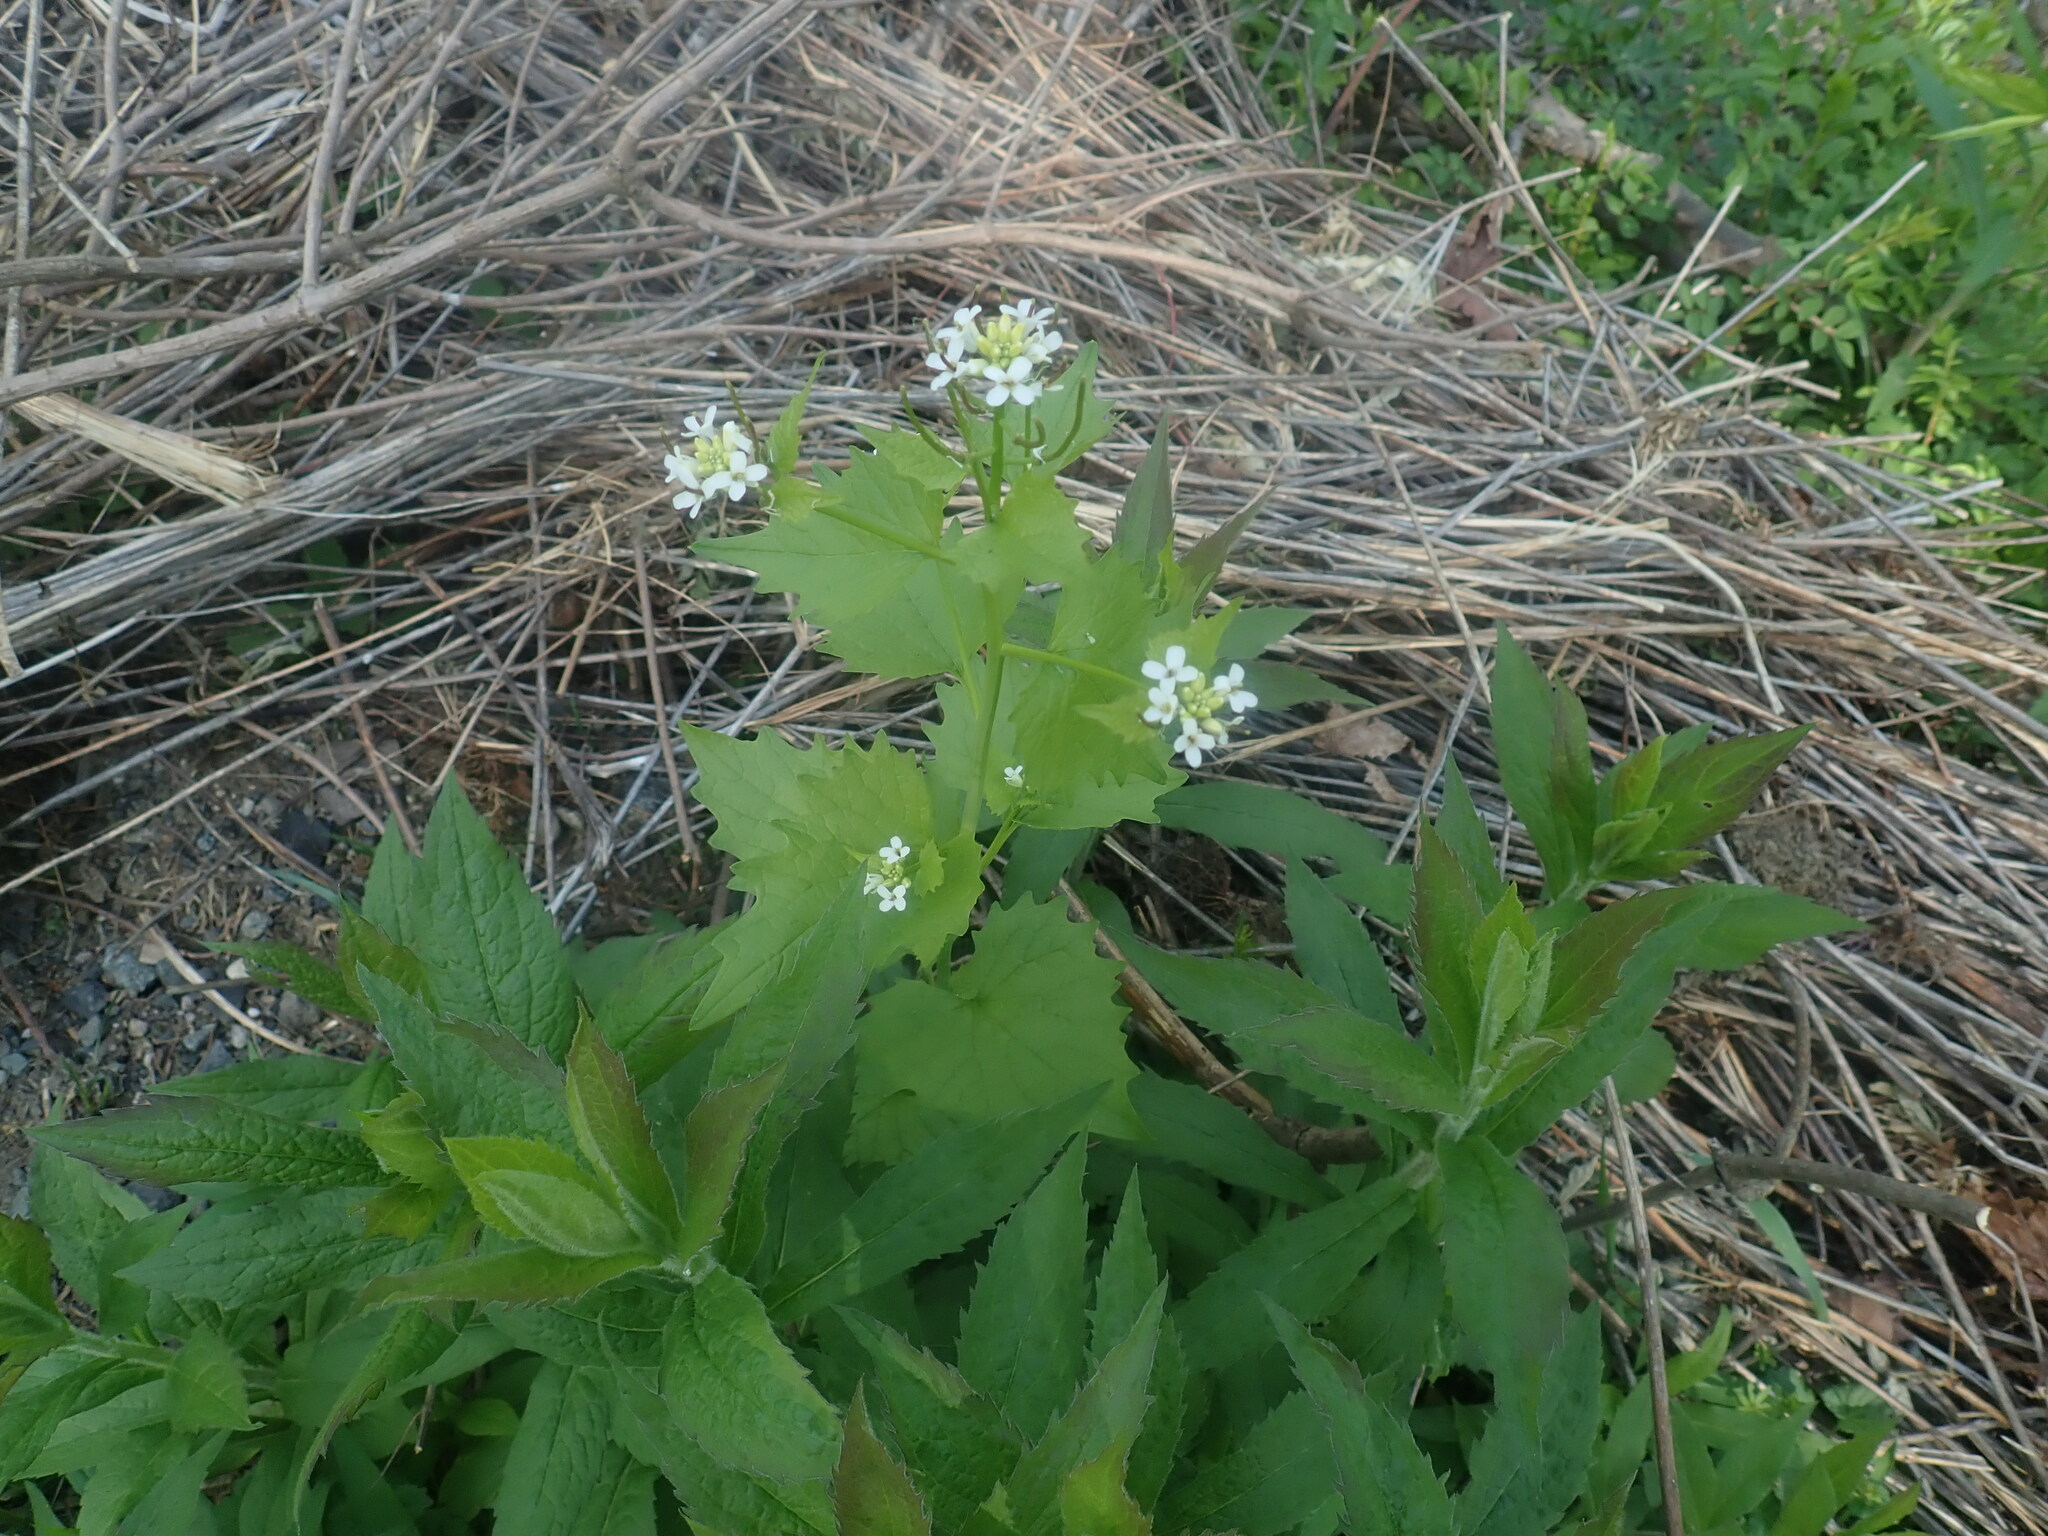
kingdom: Plantae
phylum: Tracheophyta
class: Magnoliopsida
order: Brassicales
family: Brassicaceae
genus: Alliaria
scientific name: Alliaria petiolata
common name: Garlic mustard
